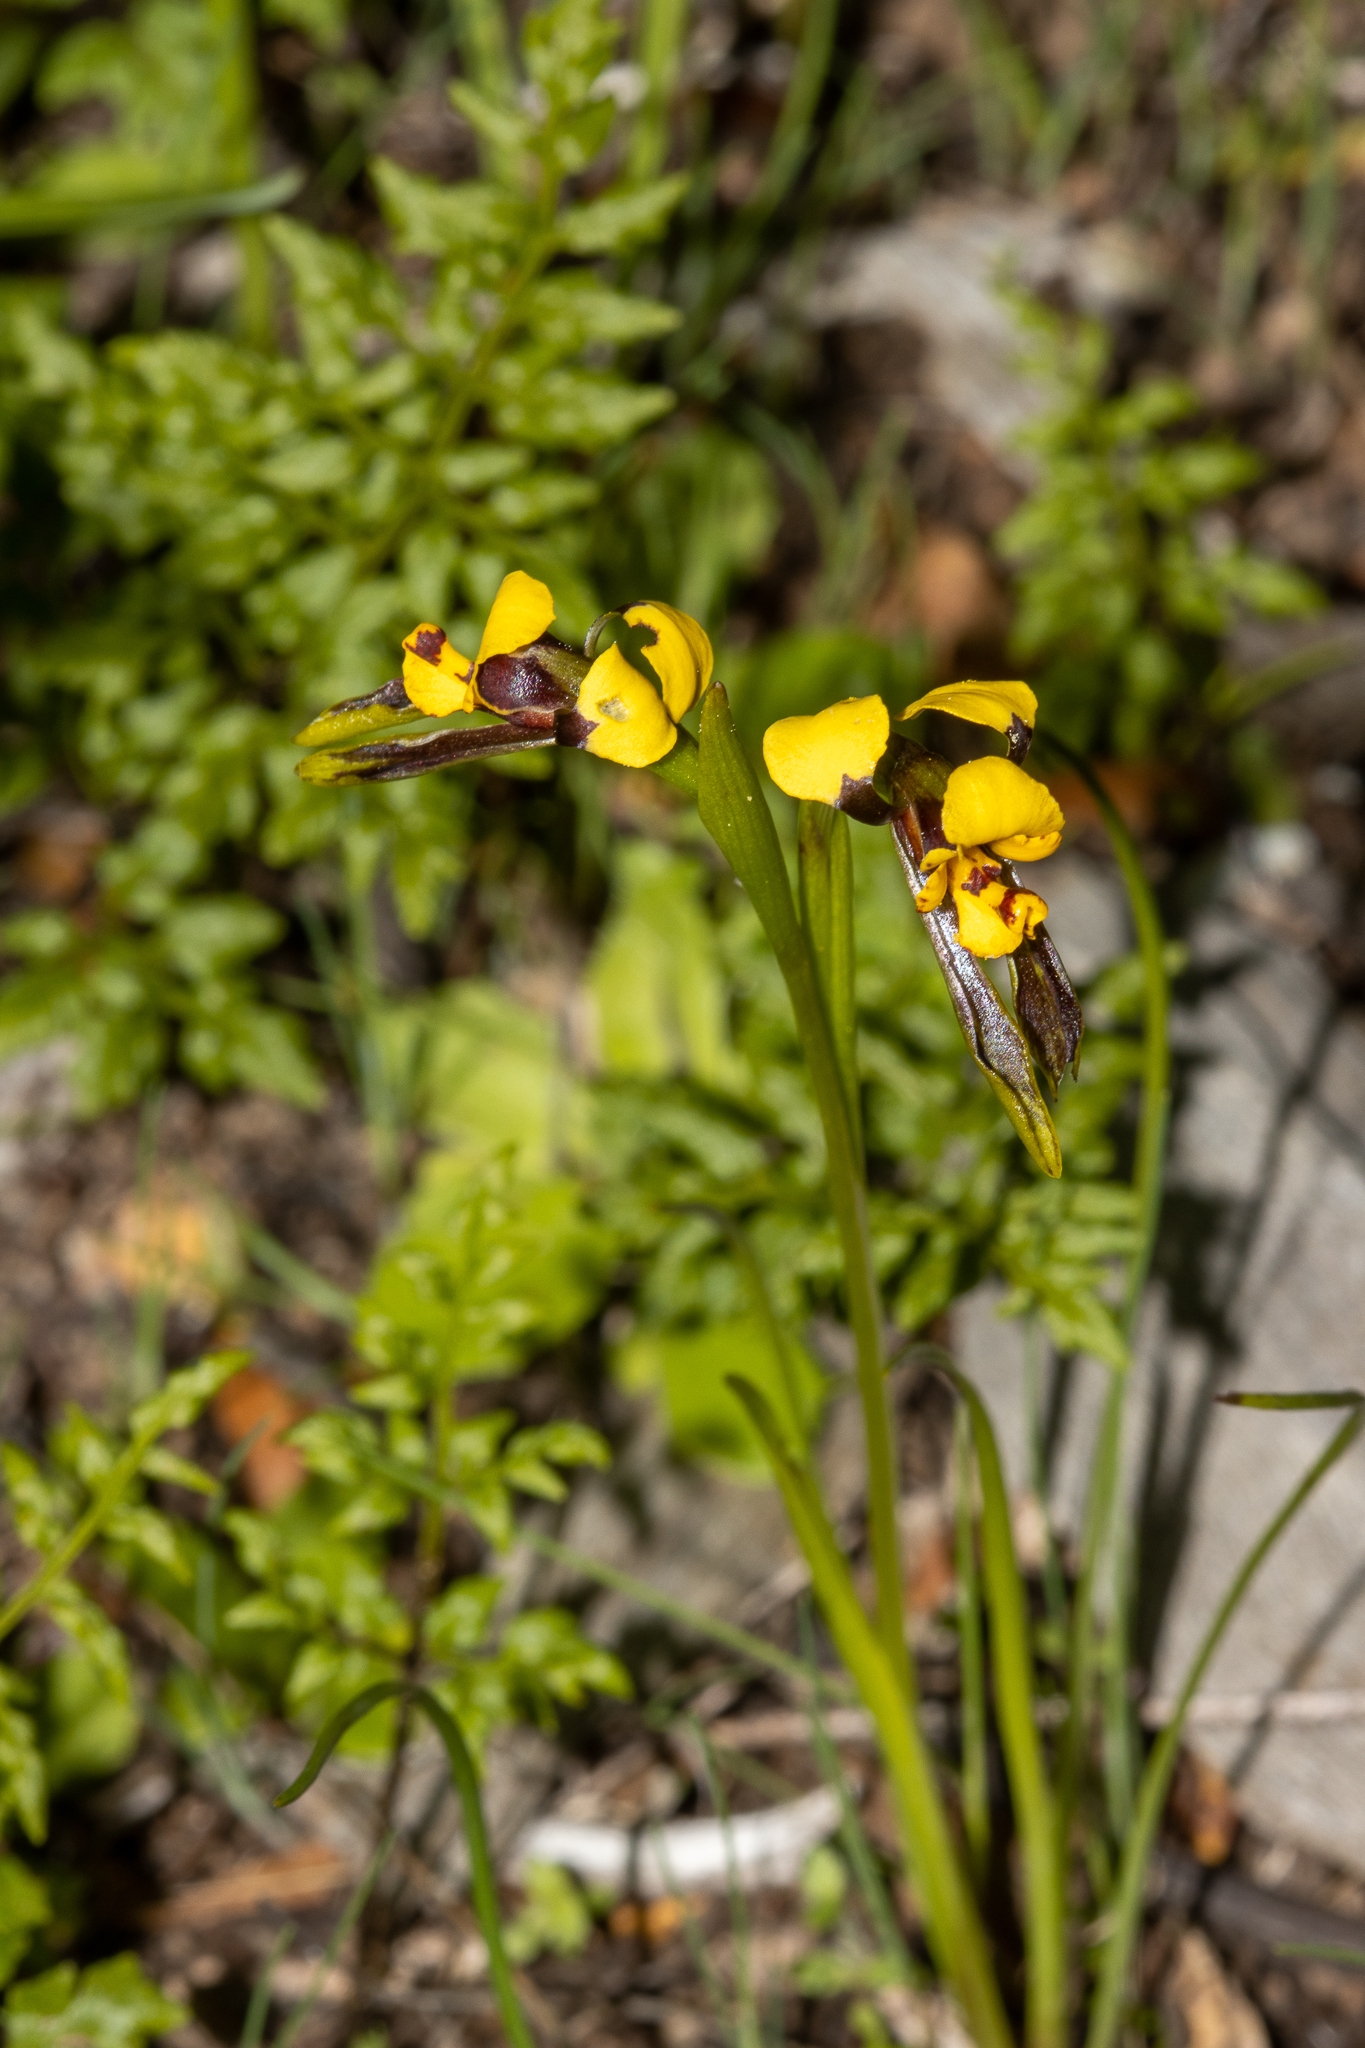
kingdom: Plantae
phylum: Tracheophyta
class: Liliopsida
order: Asparagales
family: Orchidaceae
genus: Diuris
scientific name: Diuris palustris
